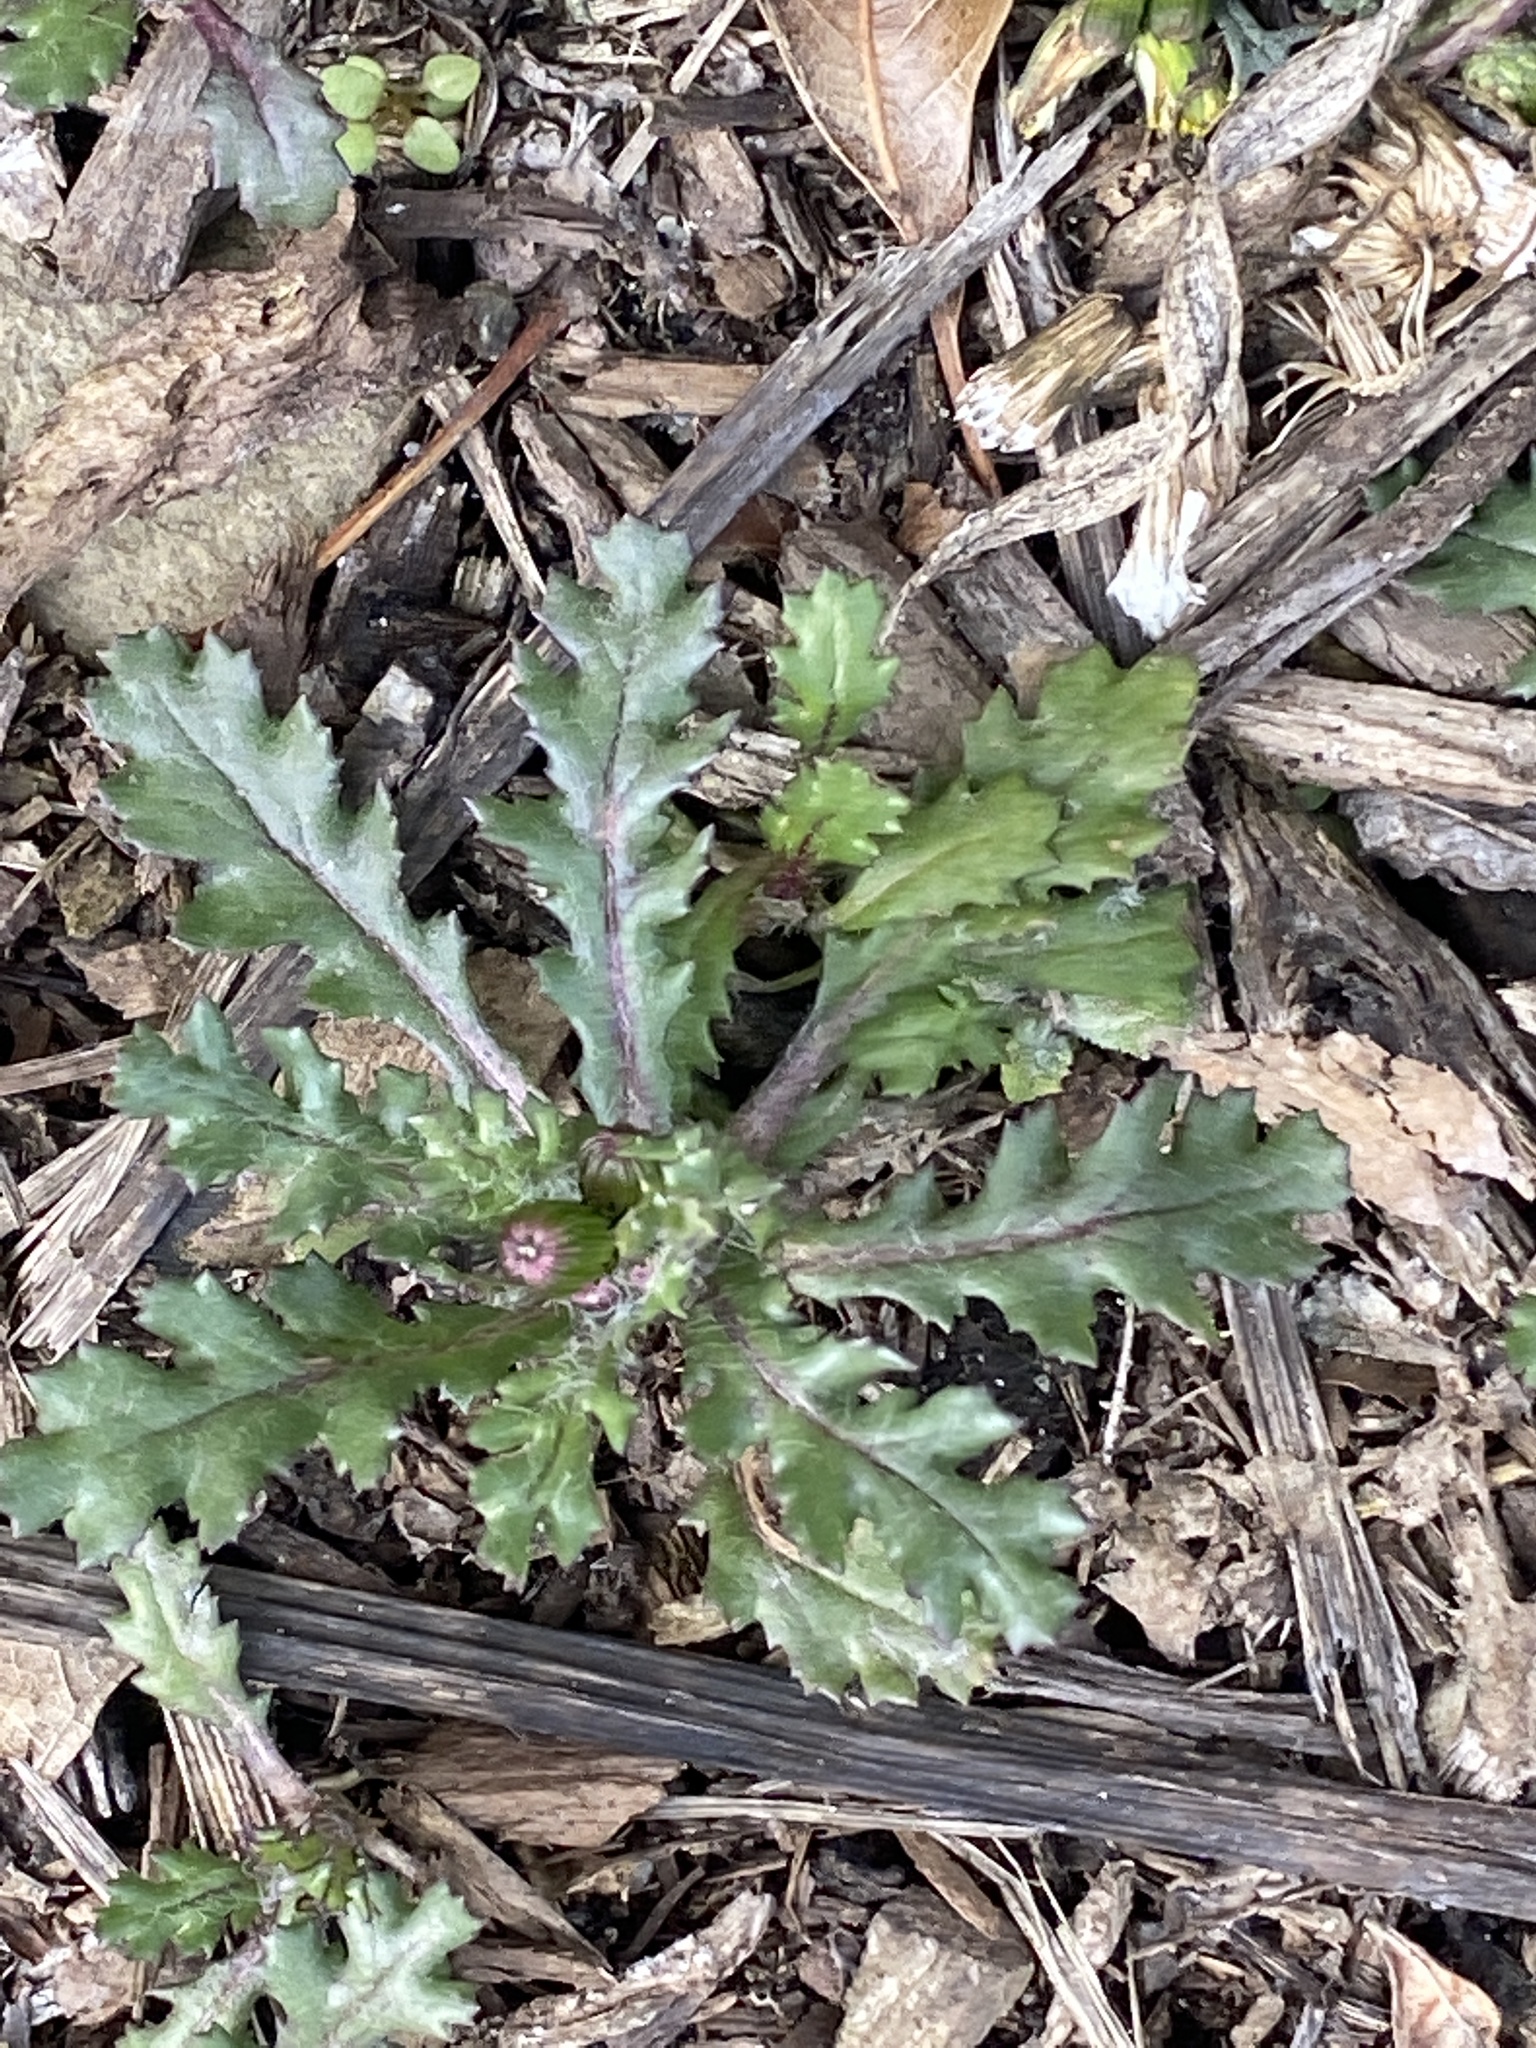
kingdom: Plantae
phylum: Tracheophyta
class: Magnoliopsida
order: Asterales
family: Asteraceae
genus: Senecio
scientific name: Senecio vulgaris
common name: Old-man-in-the-spring
